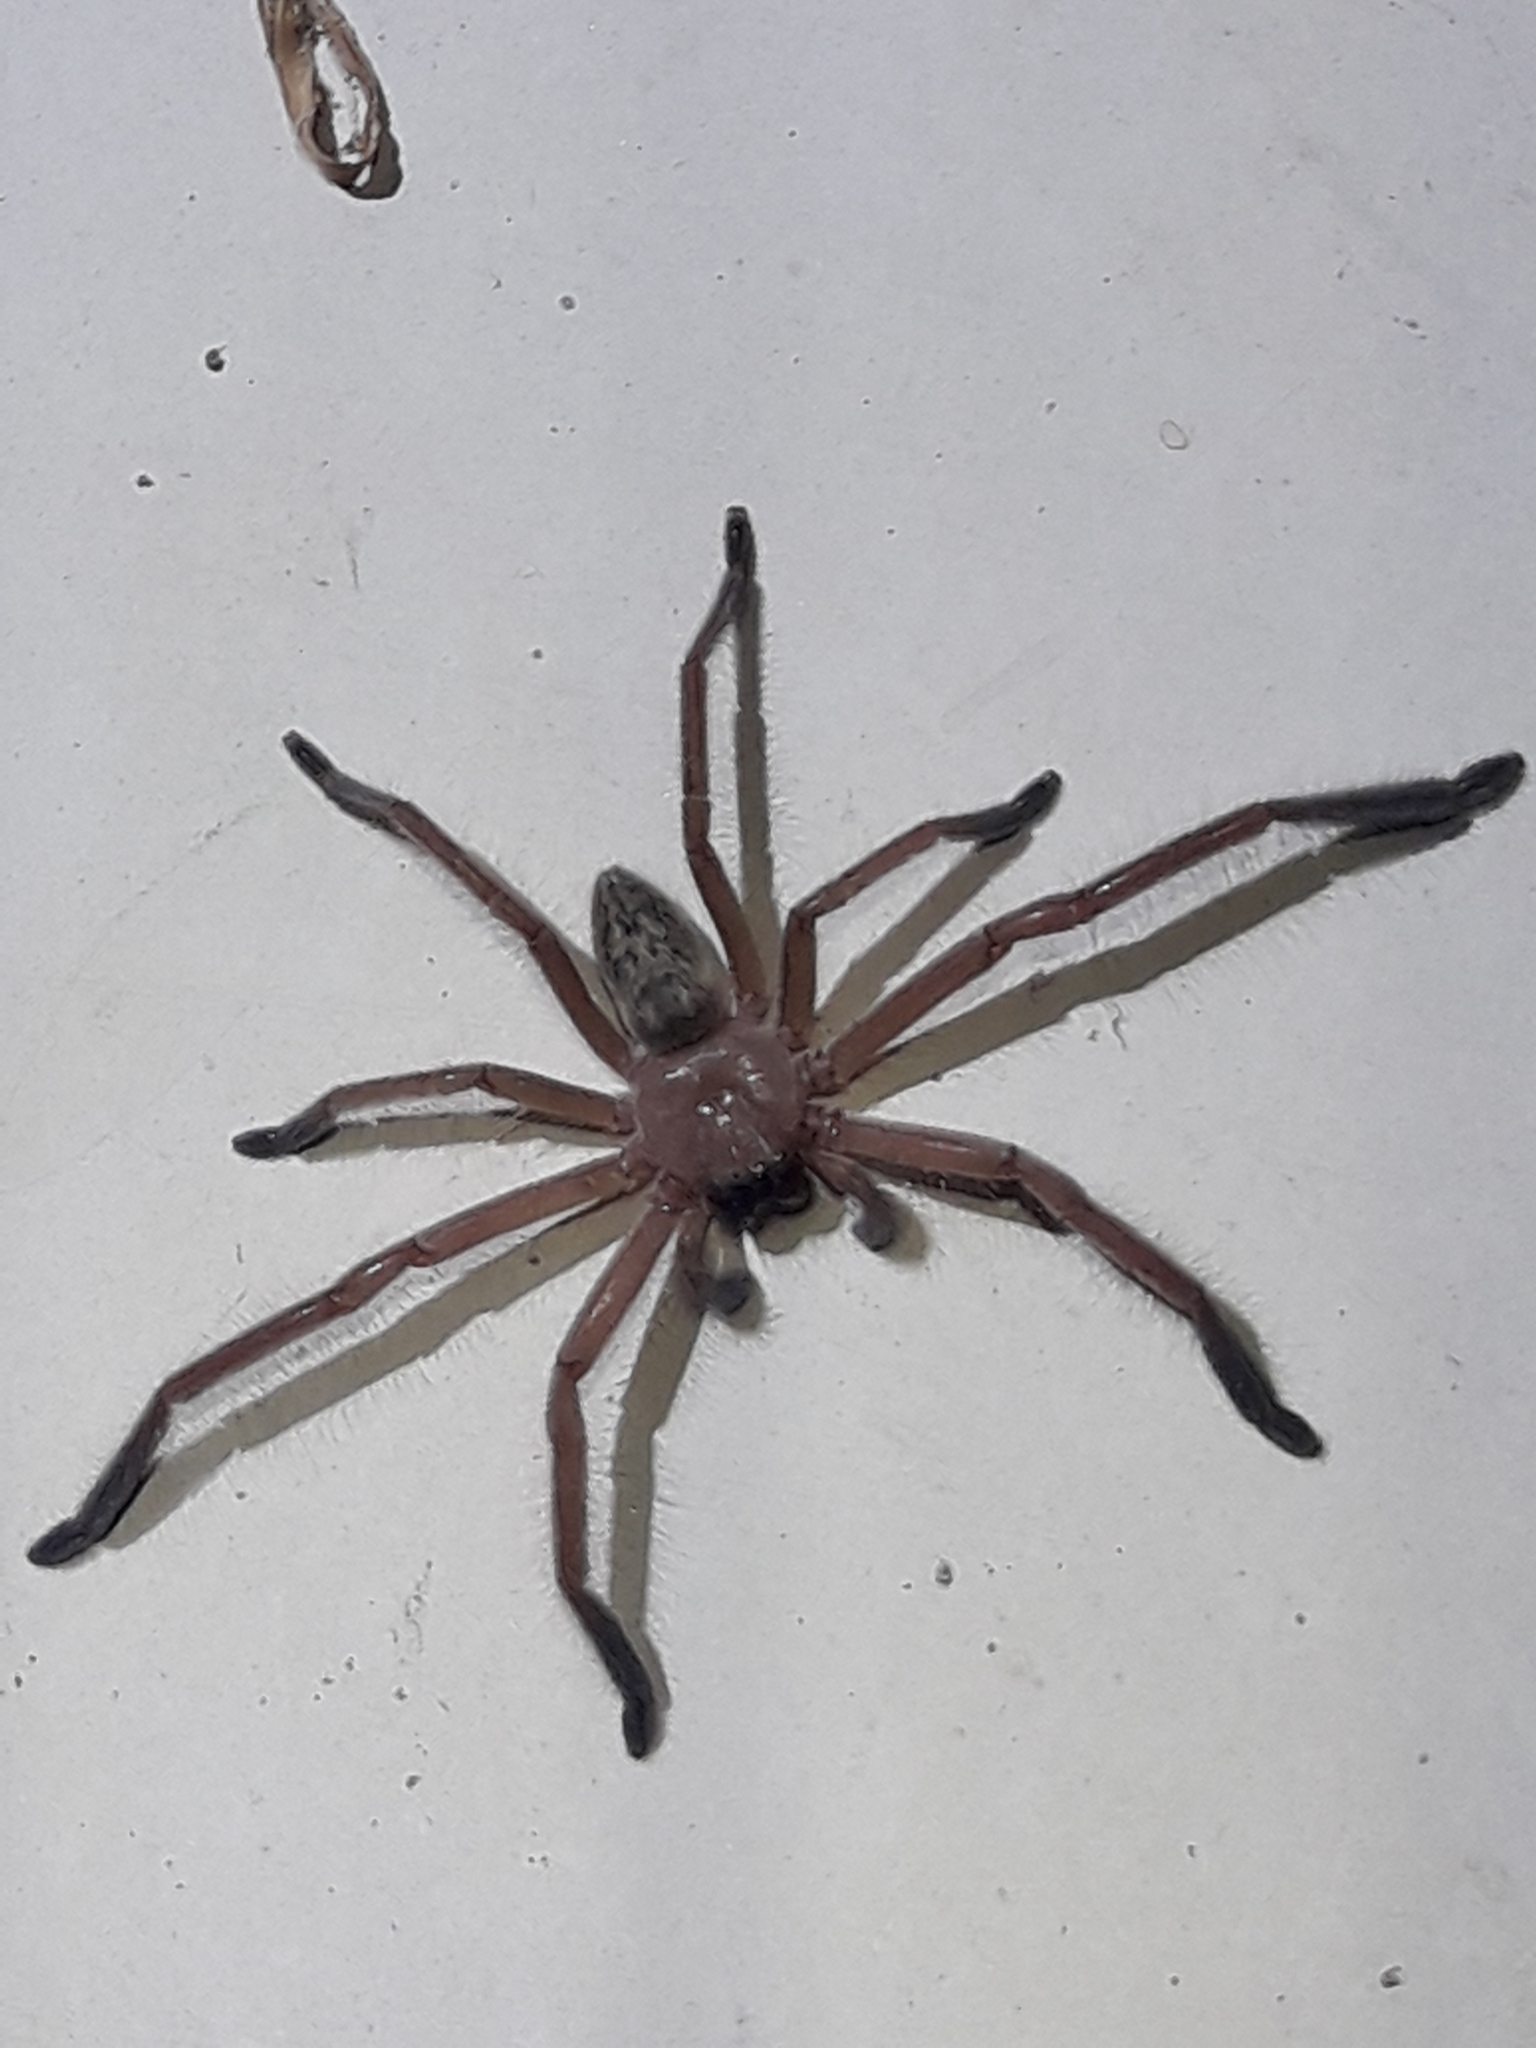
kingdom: Animalia
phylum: Arthropoda
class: Arachnida
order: Araneae
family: Sparassidae
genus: Delena
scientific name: Delena cancerides
